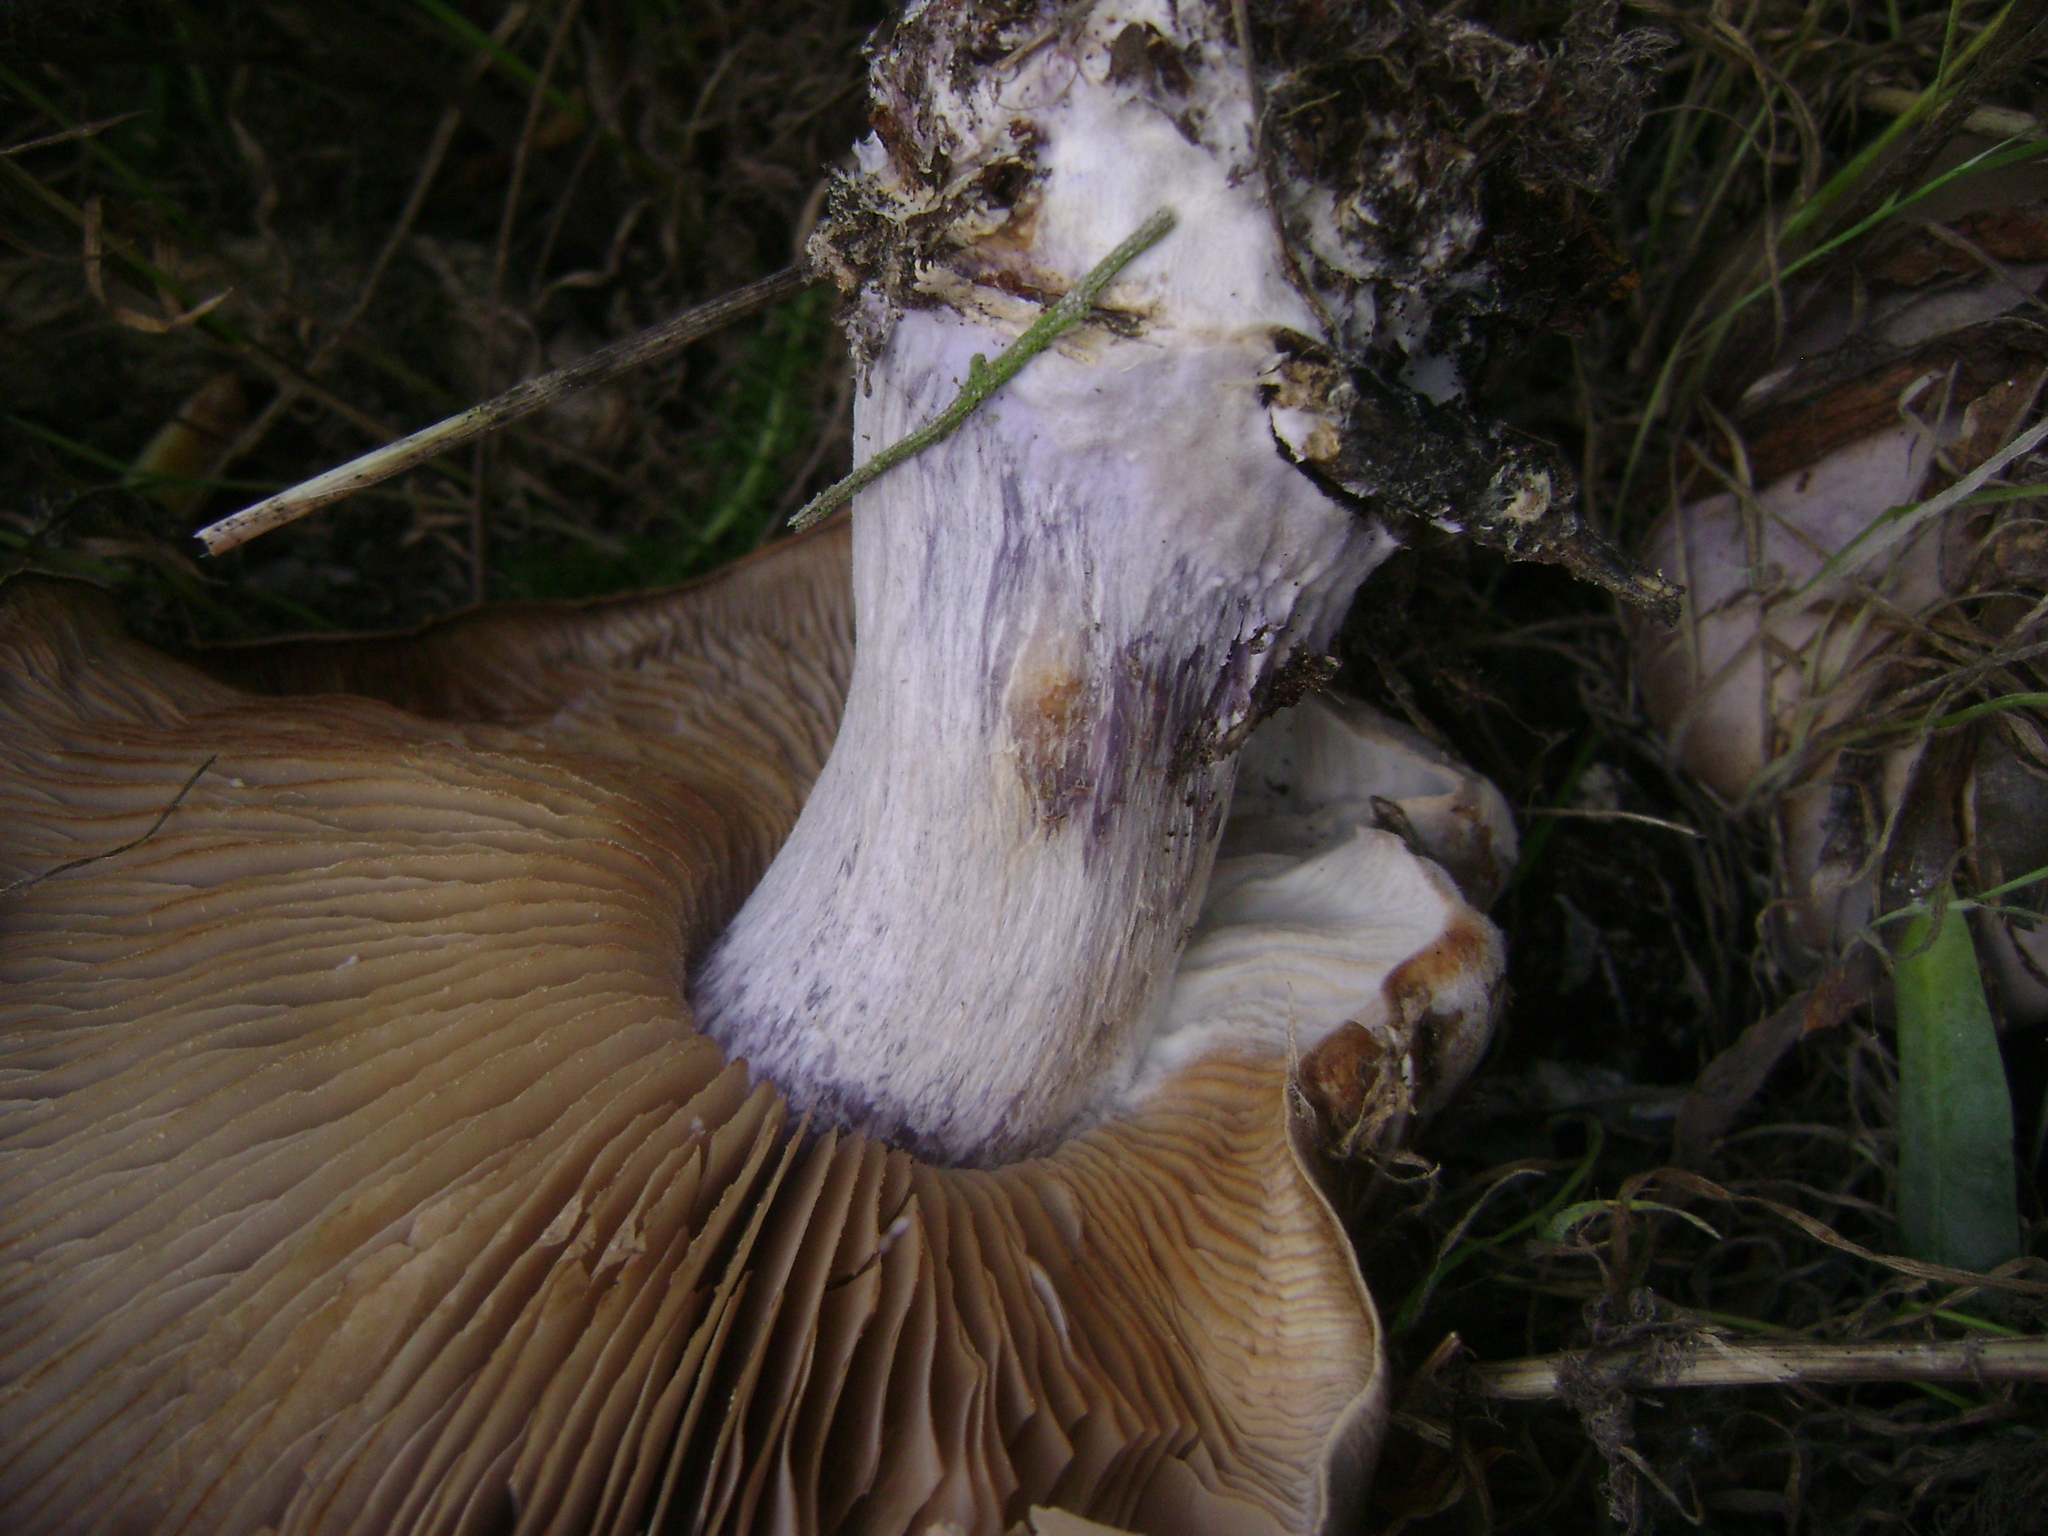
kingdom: Fungi
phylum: Basidiomycota
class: Agaricomycetes
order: Agaricales
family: Tricholomataceae
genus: Collybia
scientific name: Collybia
